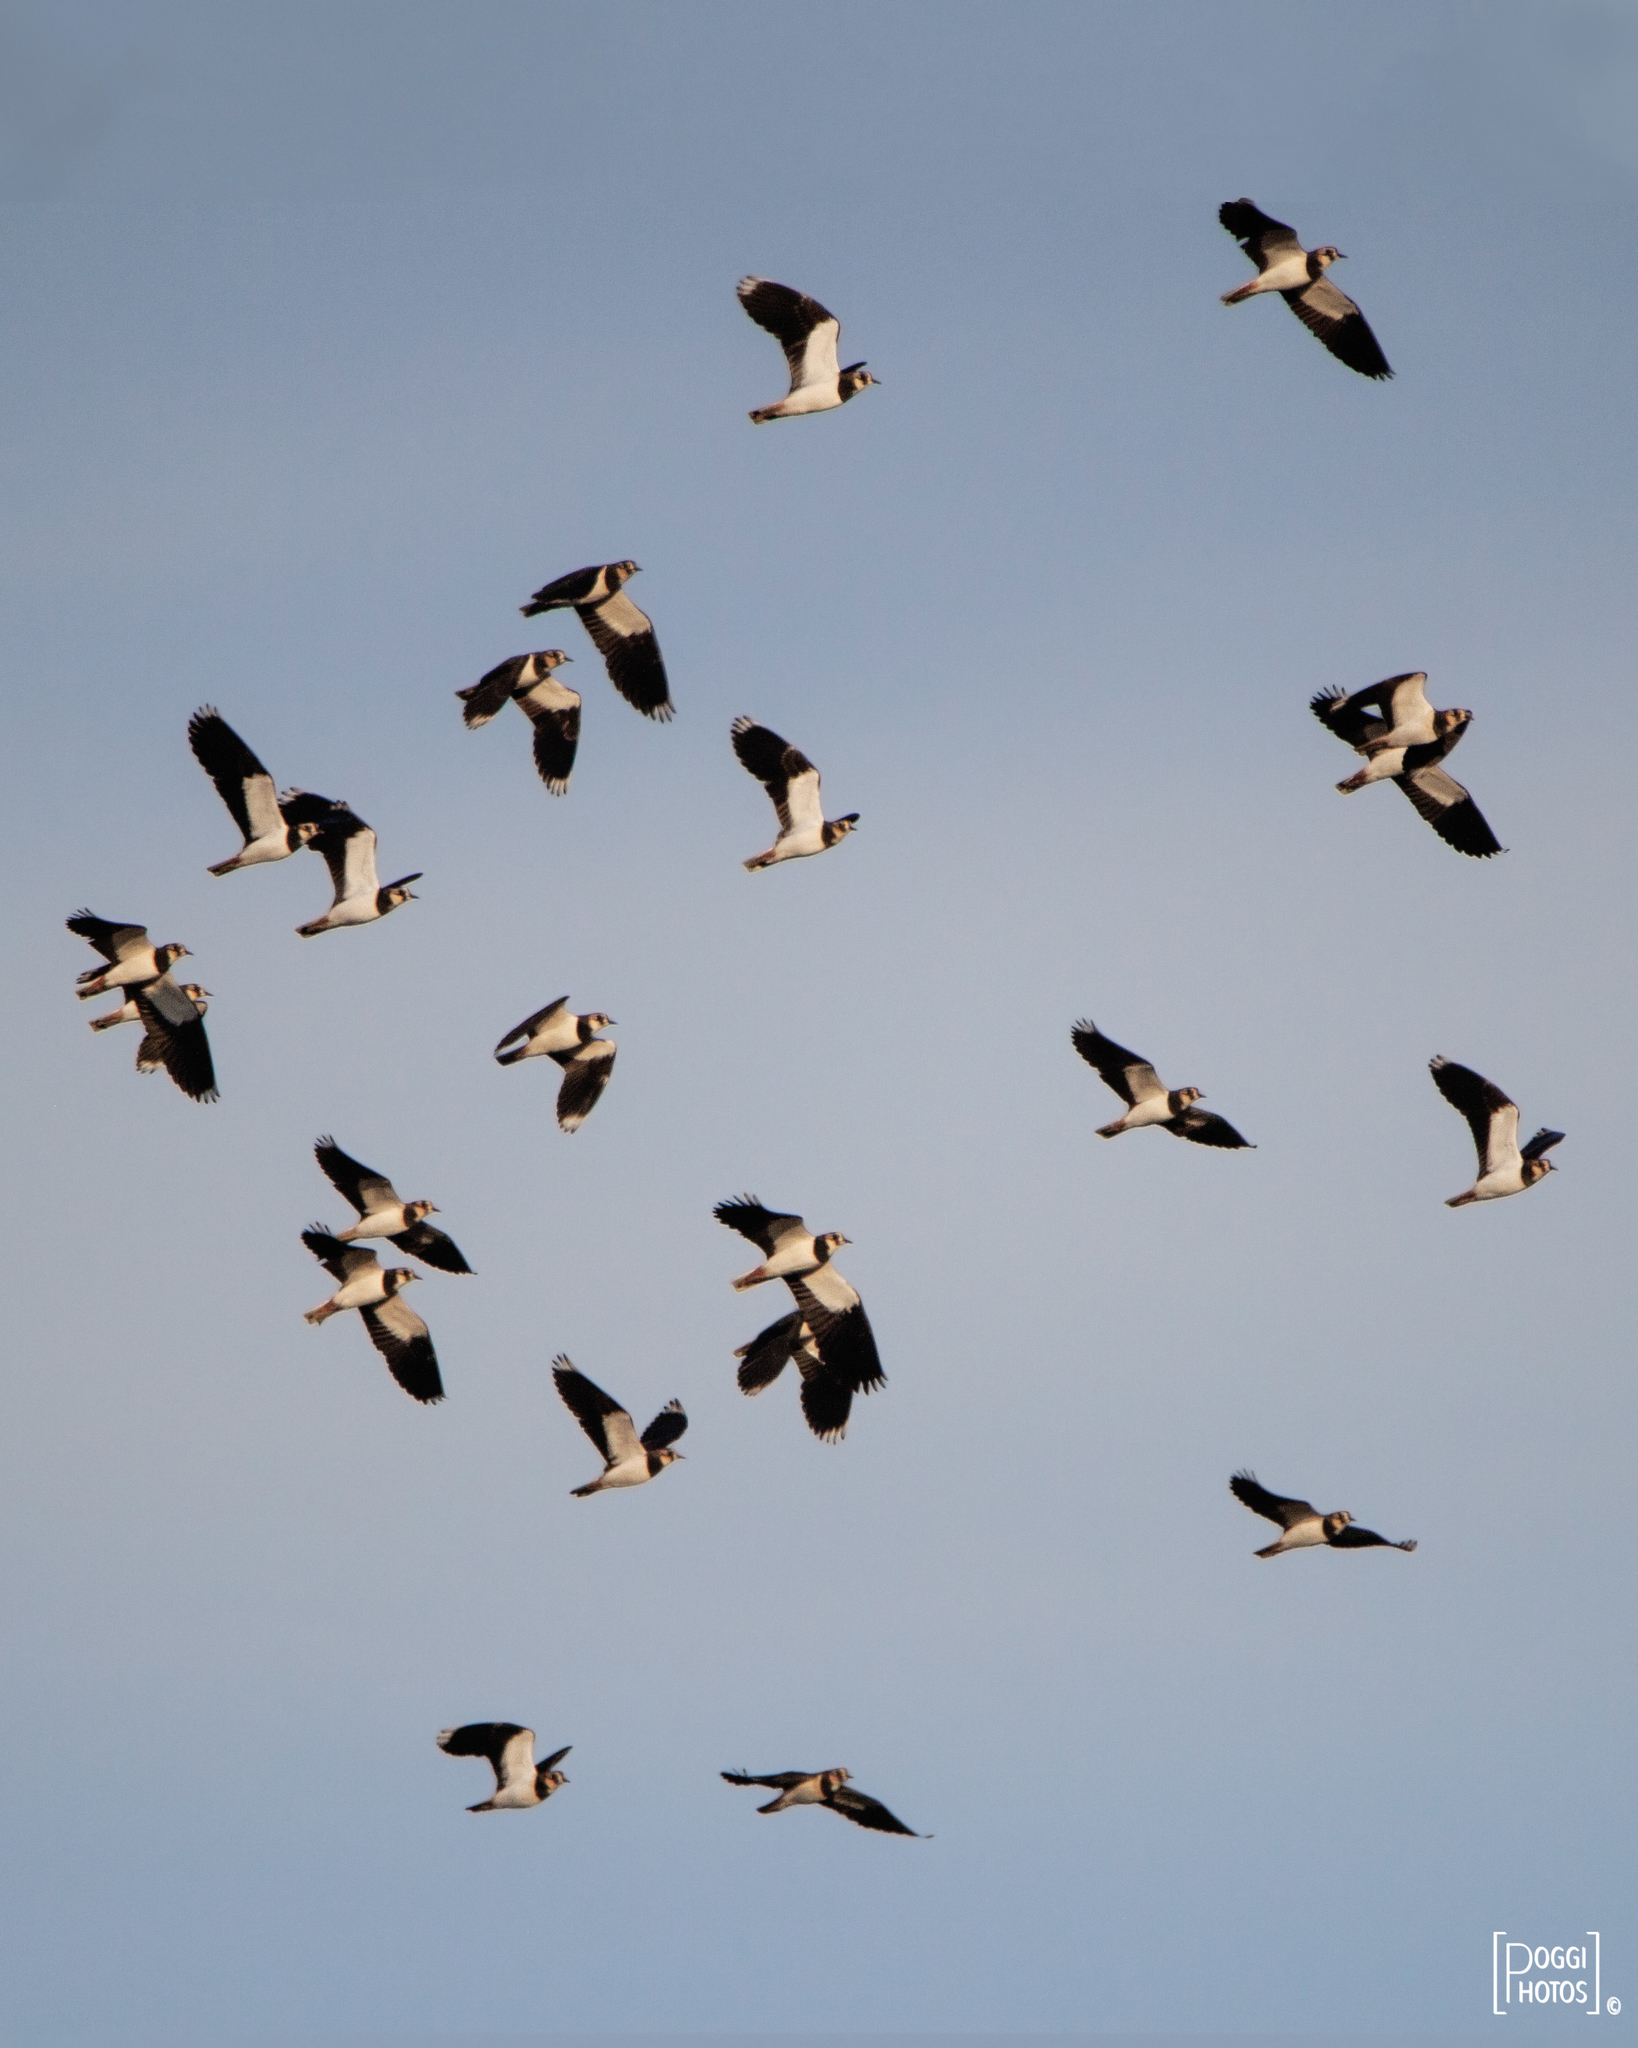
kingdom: Animalia
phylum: Chordata
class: Aves
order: Charadriiformes
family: Charadriidae
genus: Vanellus
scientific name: Vanellus vanellus
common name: Northern lapwing
